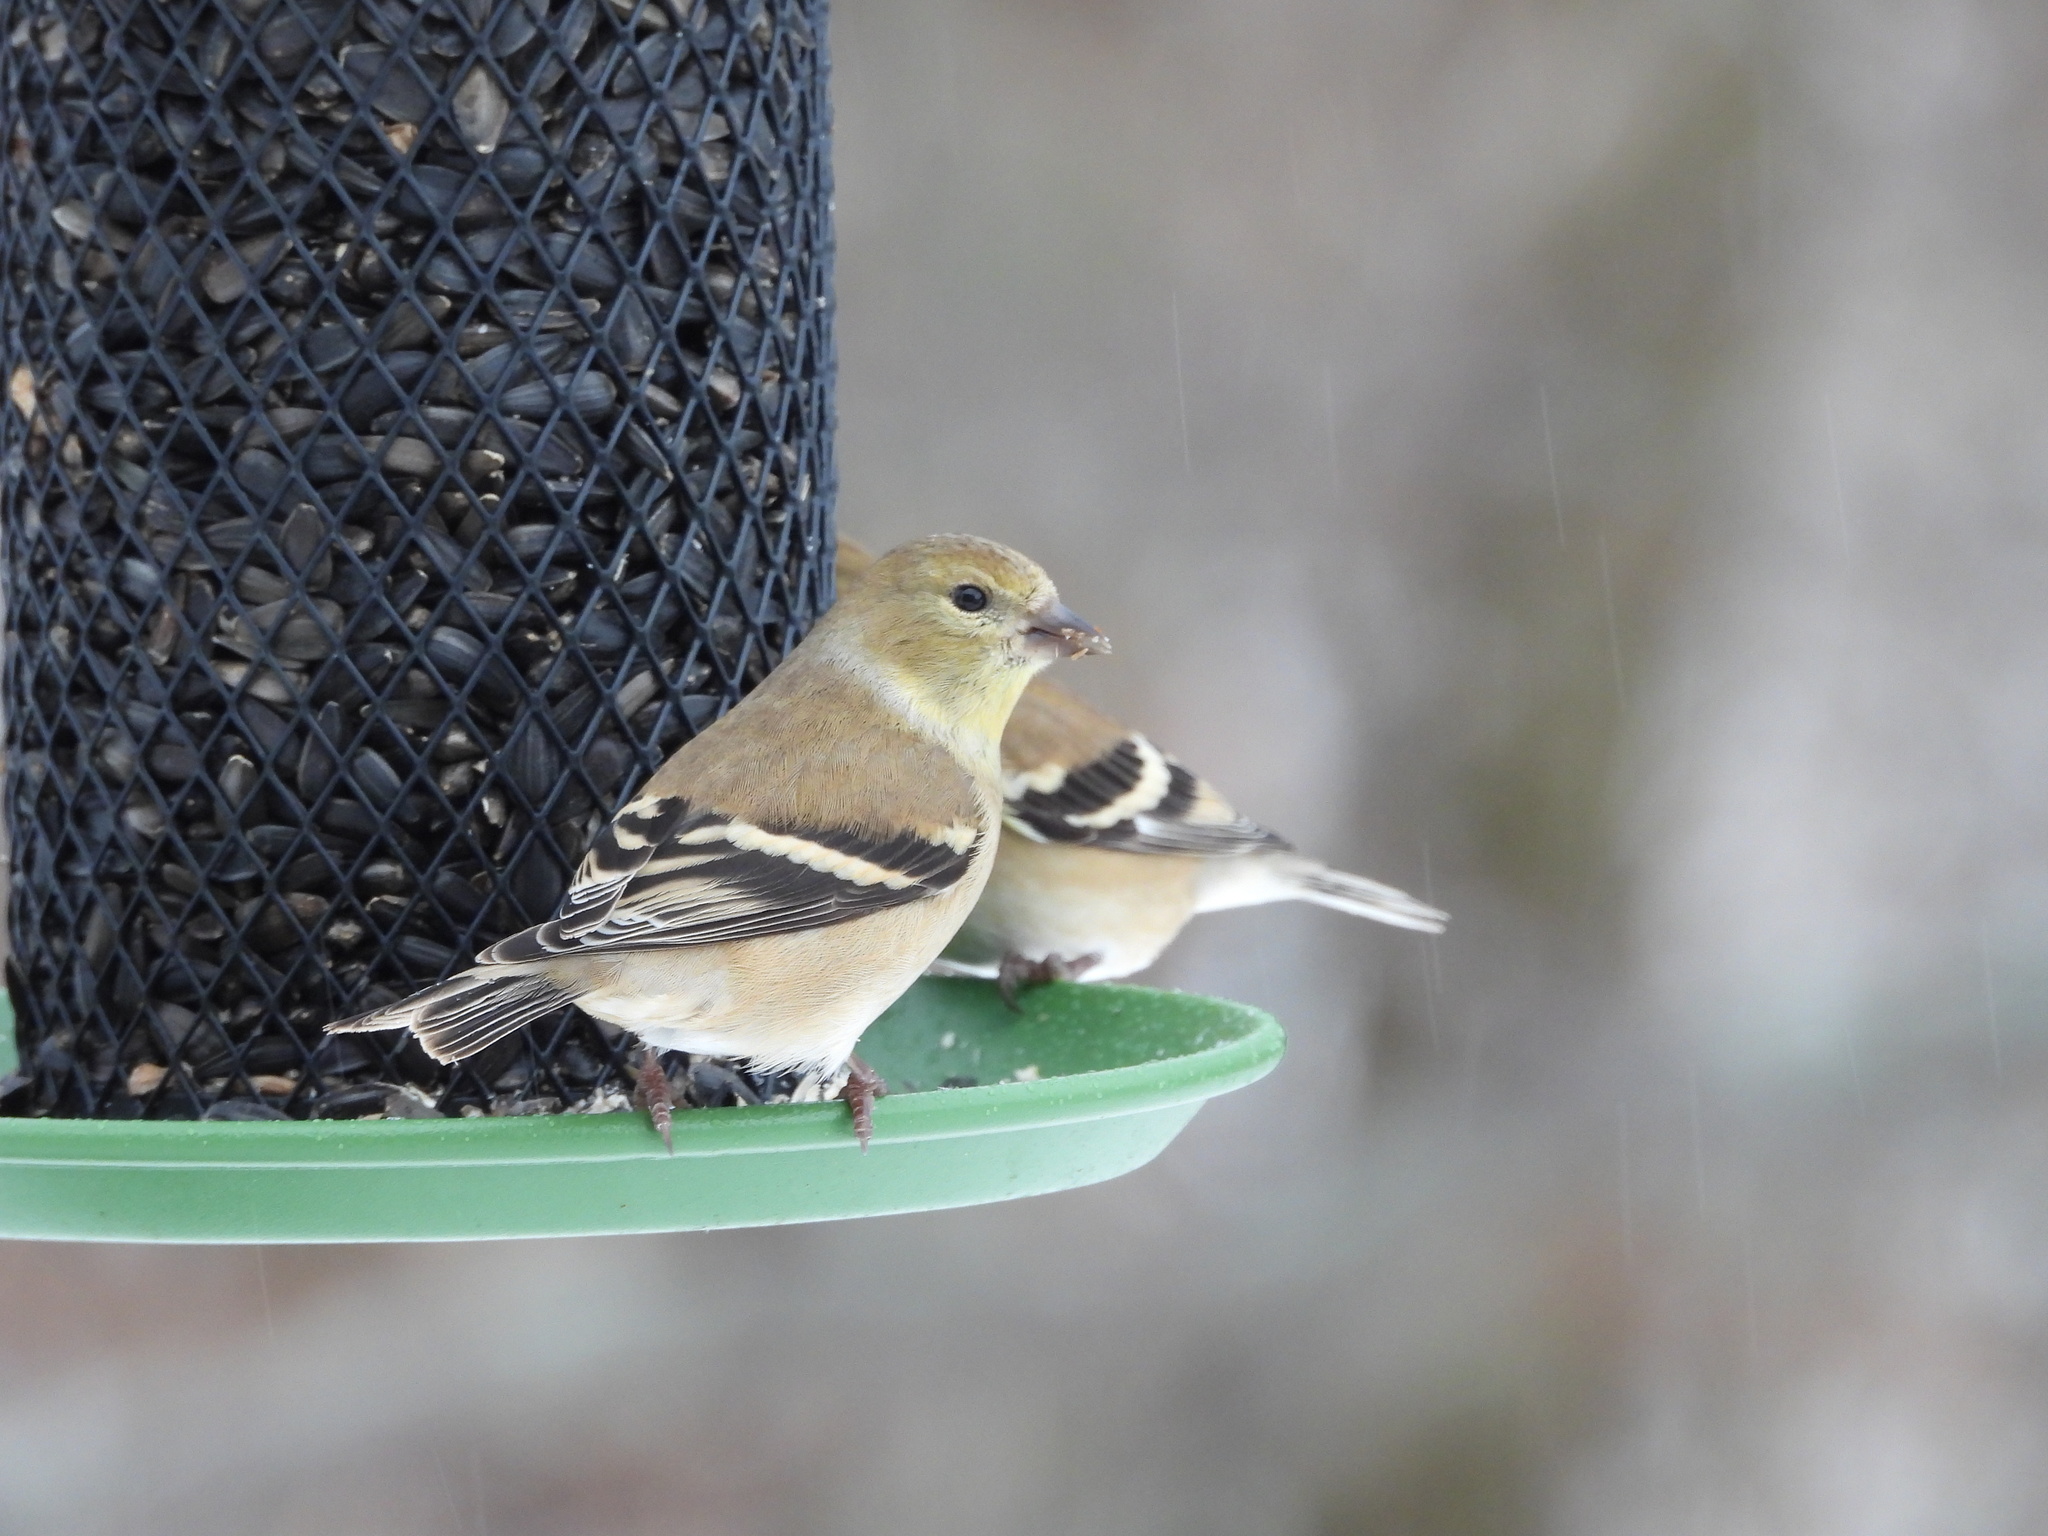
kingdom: Animalia
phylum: Chordata
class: Aves
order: Passeriformes
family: Fringillidae
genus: Spinus
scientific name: Spinus tristis
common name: American goldfinch
